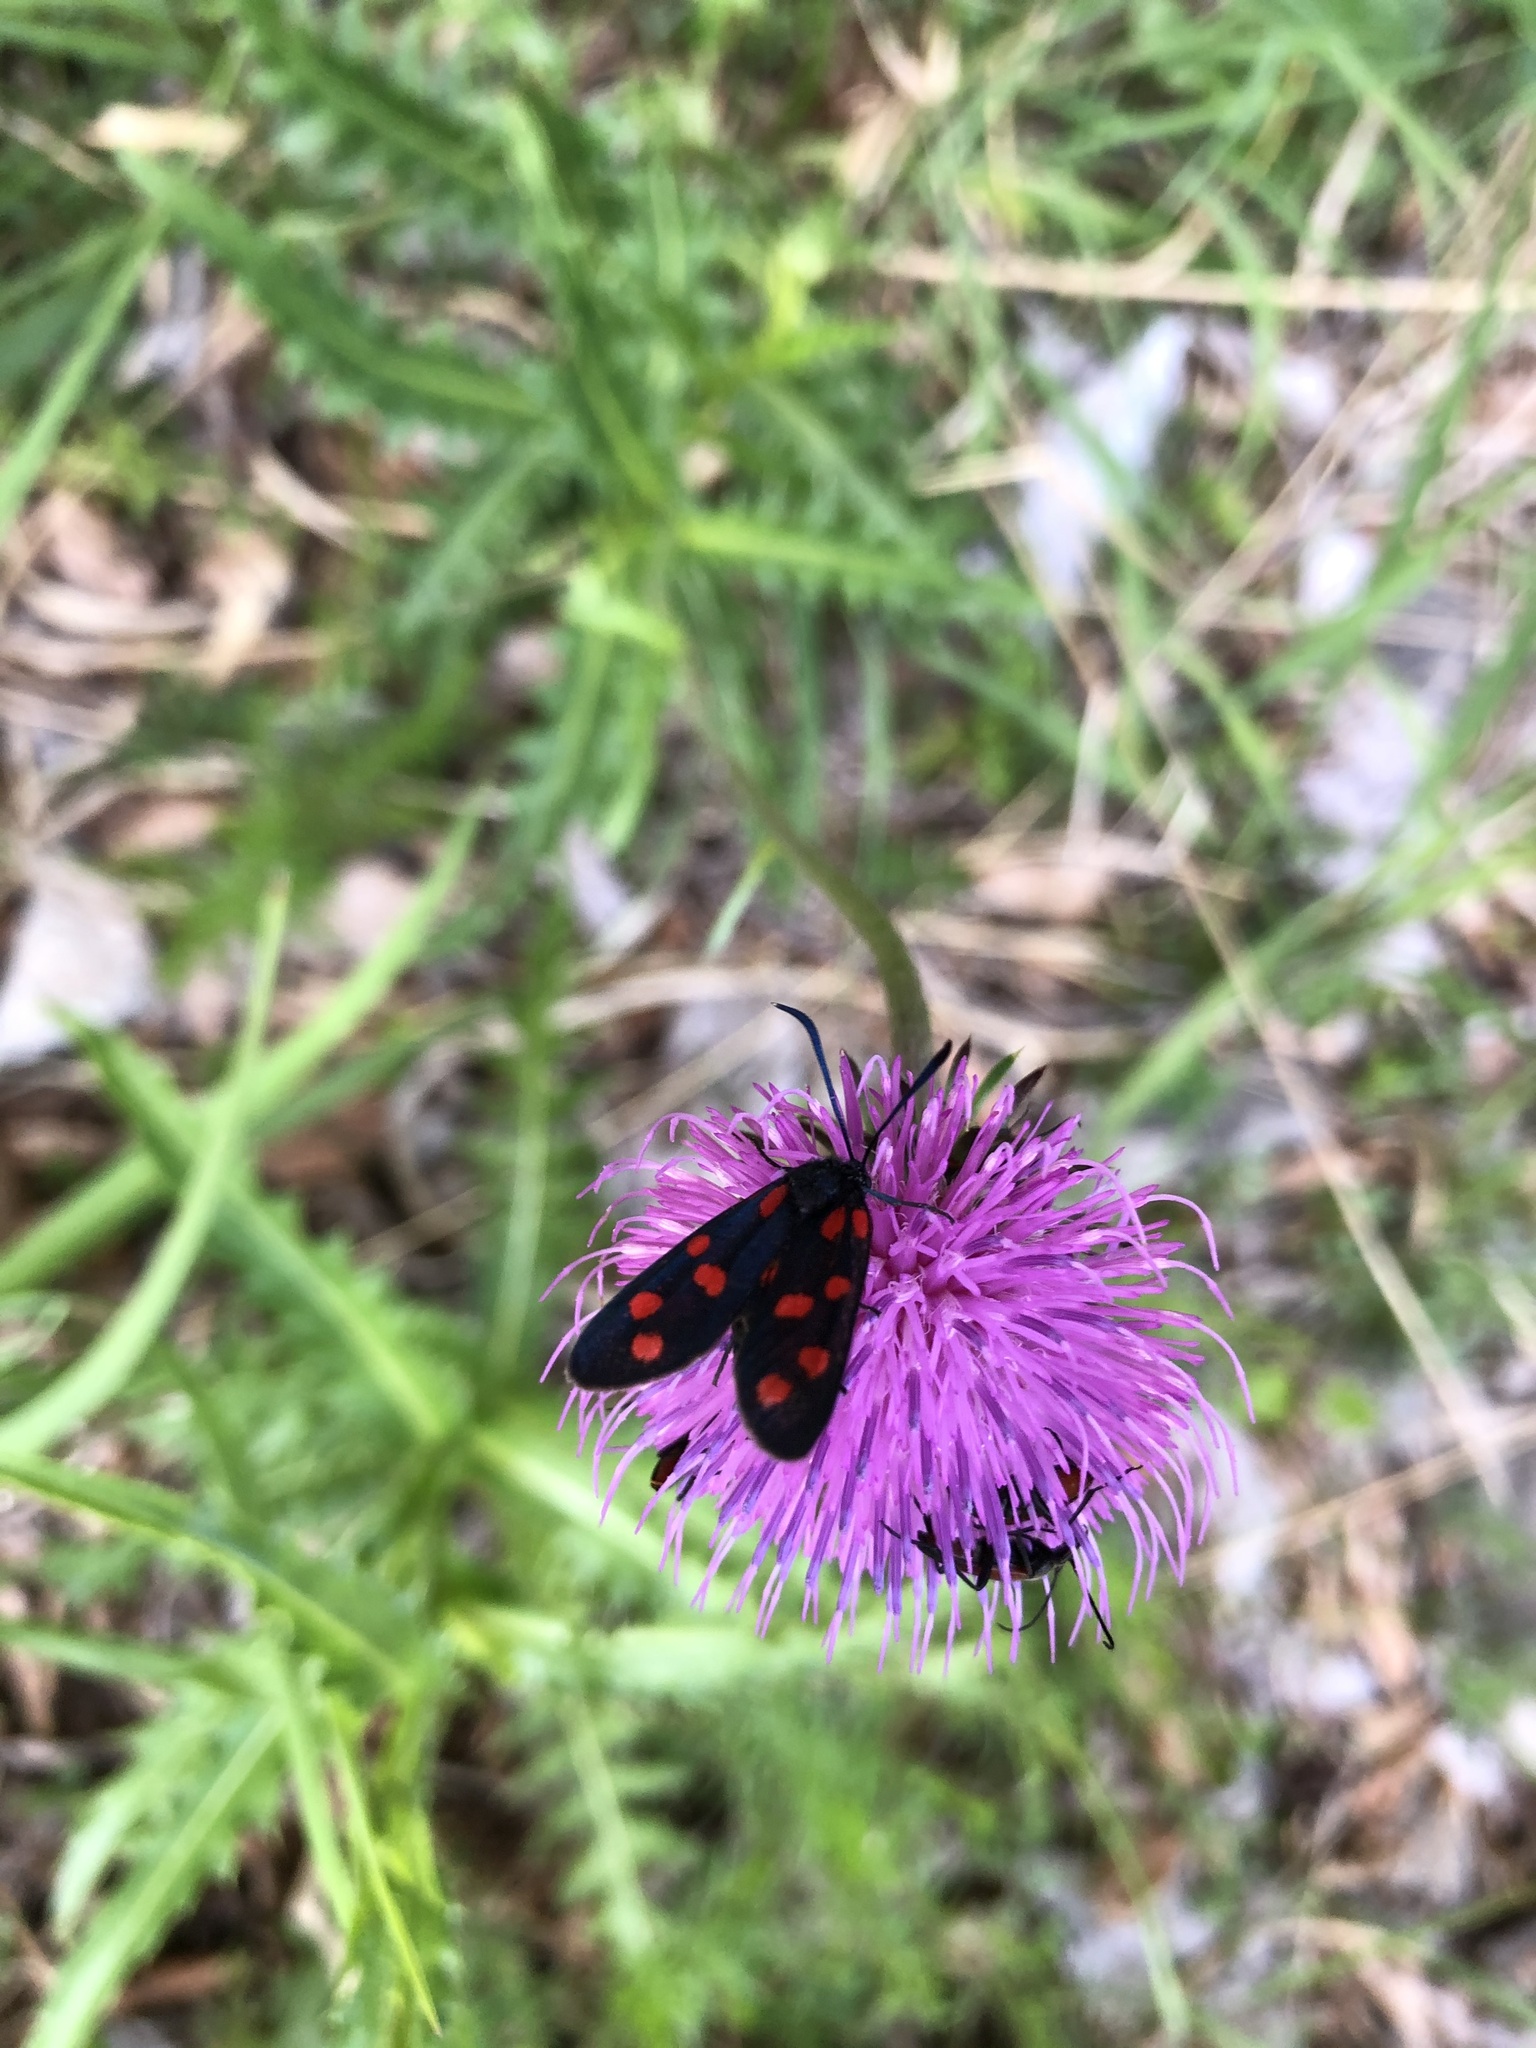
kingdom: Animalia
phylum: Arthropoda
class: Insecta
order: Lepidoptera
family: Zygaenidae
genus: Zygaena
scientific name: Zygaena transalpina
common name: Southern six spot burnet
